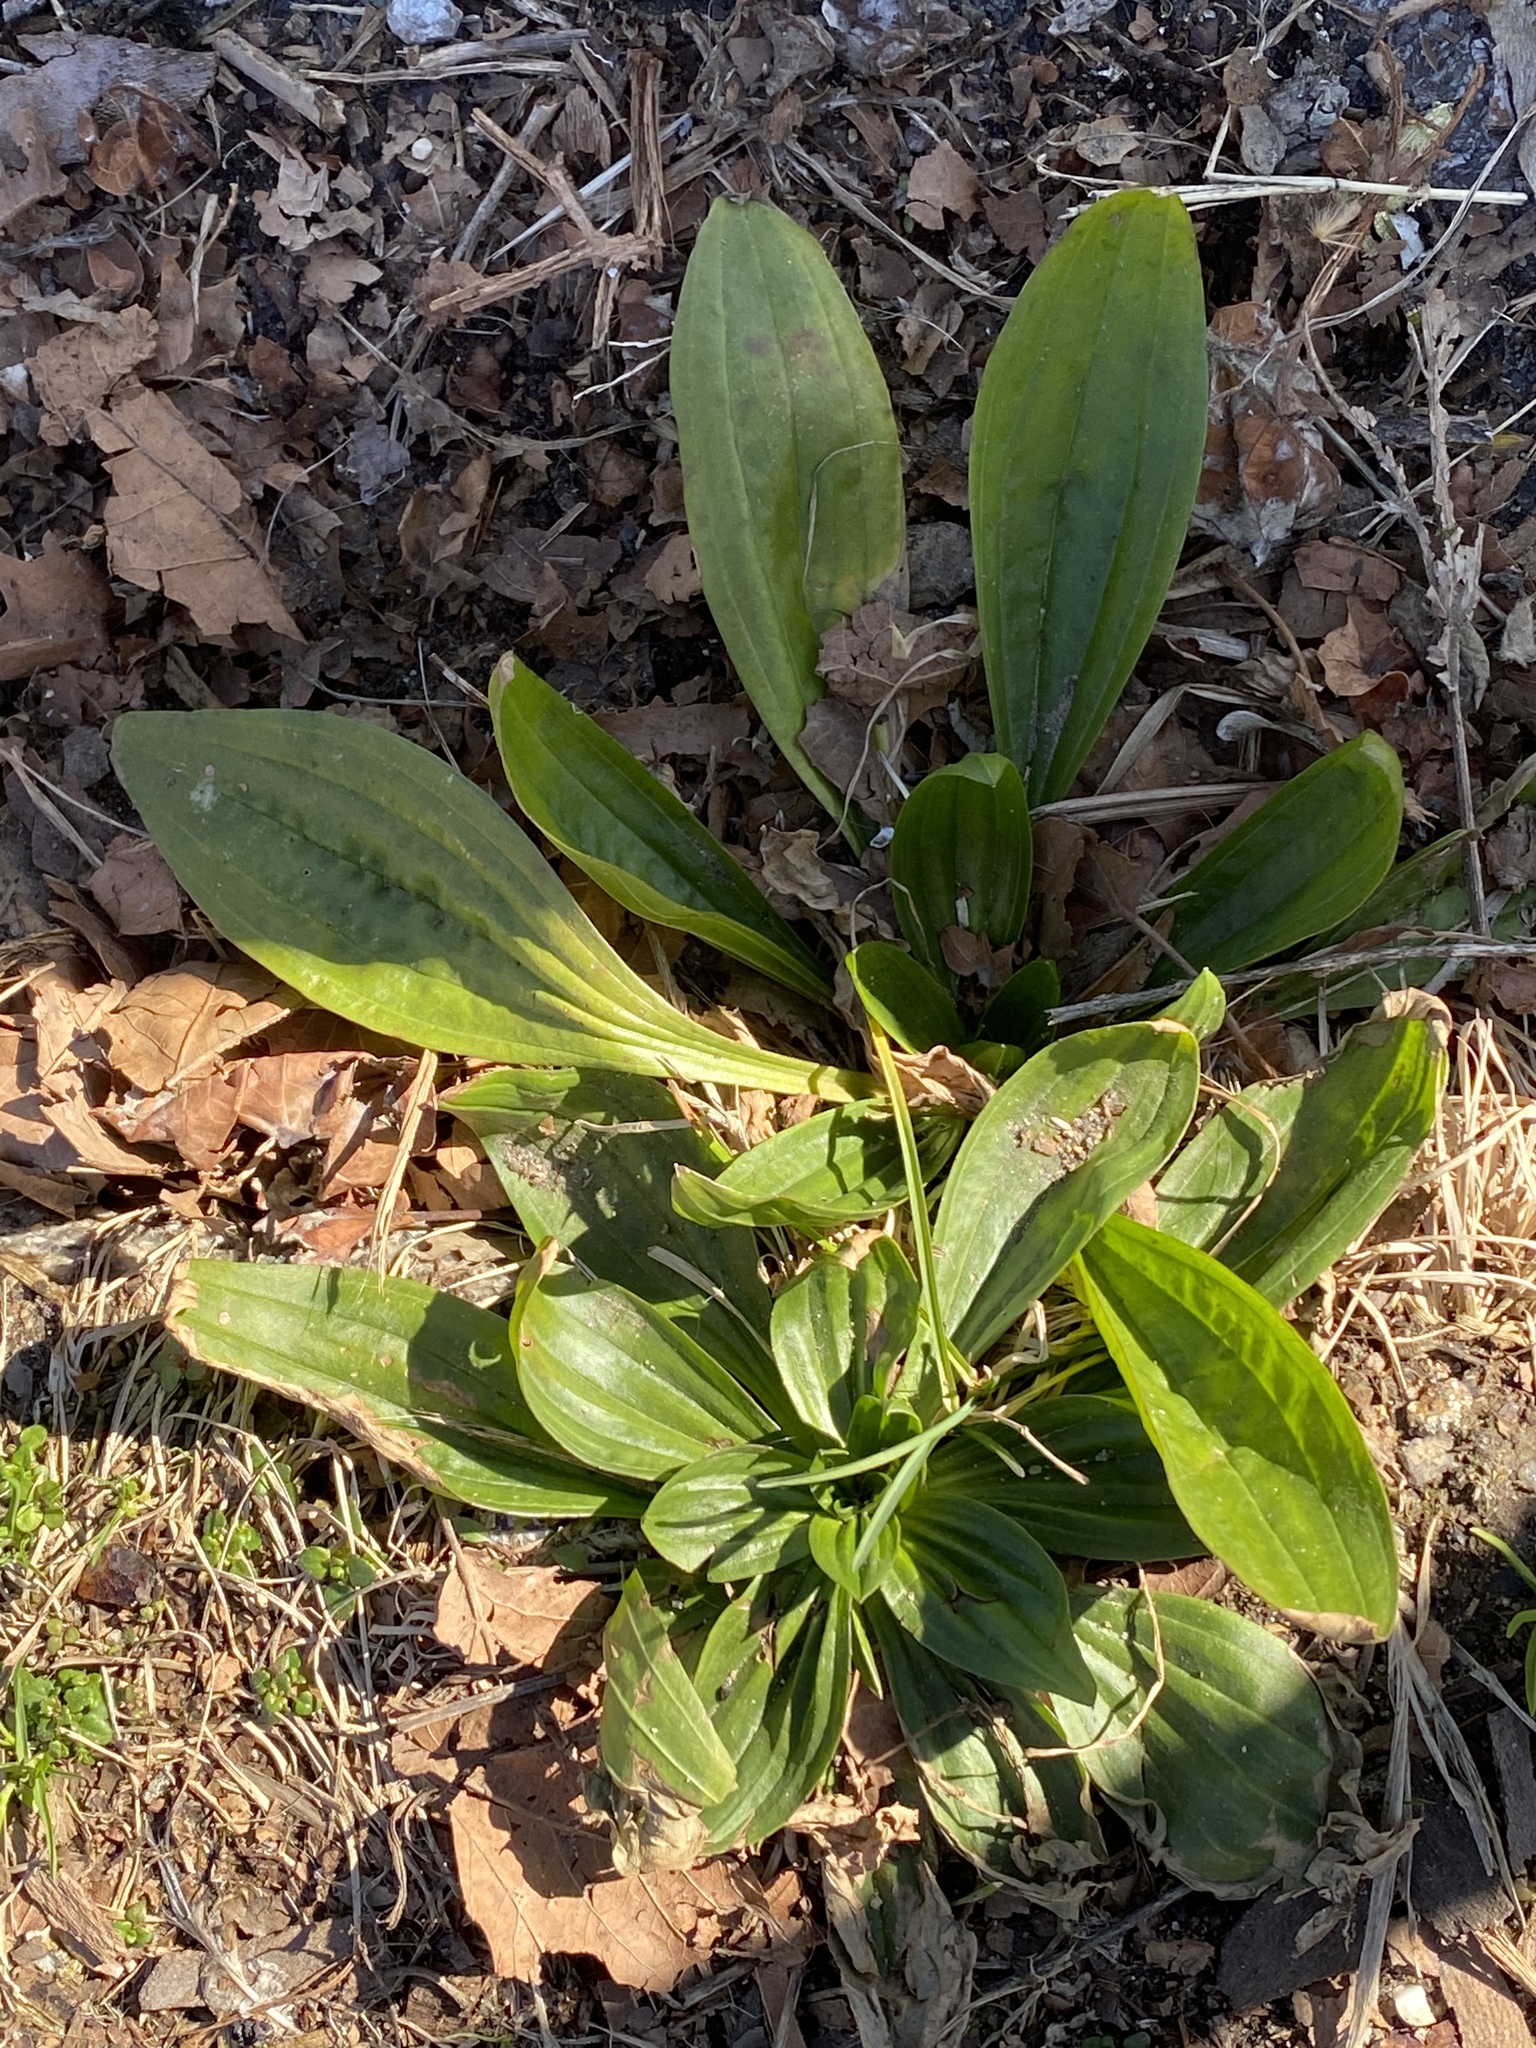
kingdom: Plantae
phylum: Tracheophyta
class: Magnoliopsida
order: Lamiales
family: Plantaginaceae
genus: Plantago
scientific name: Plantago lanceolata
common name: Ribwort plantain
